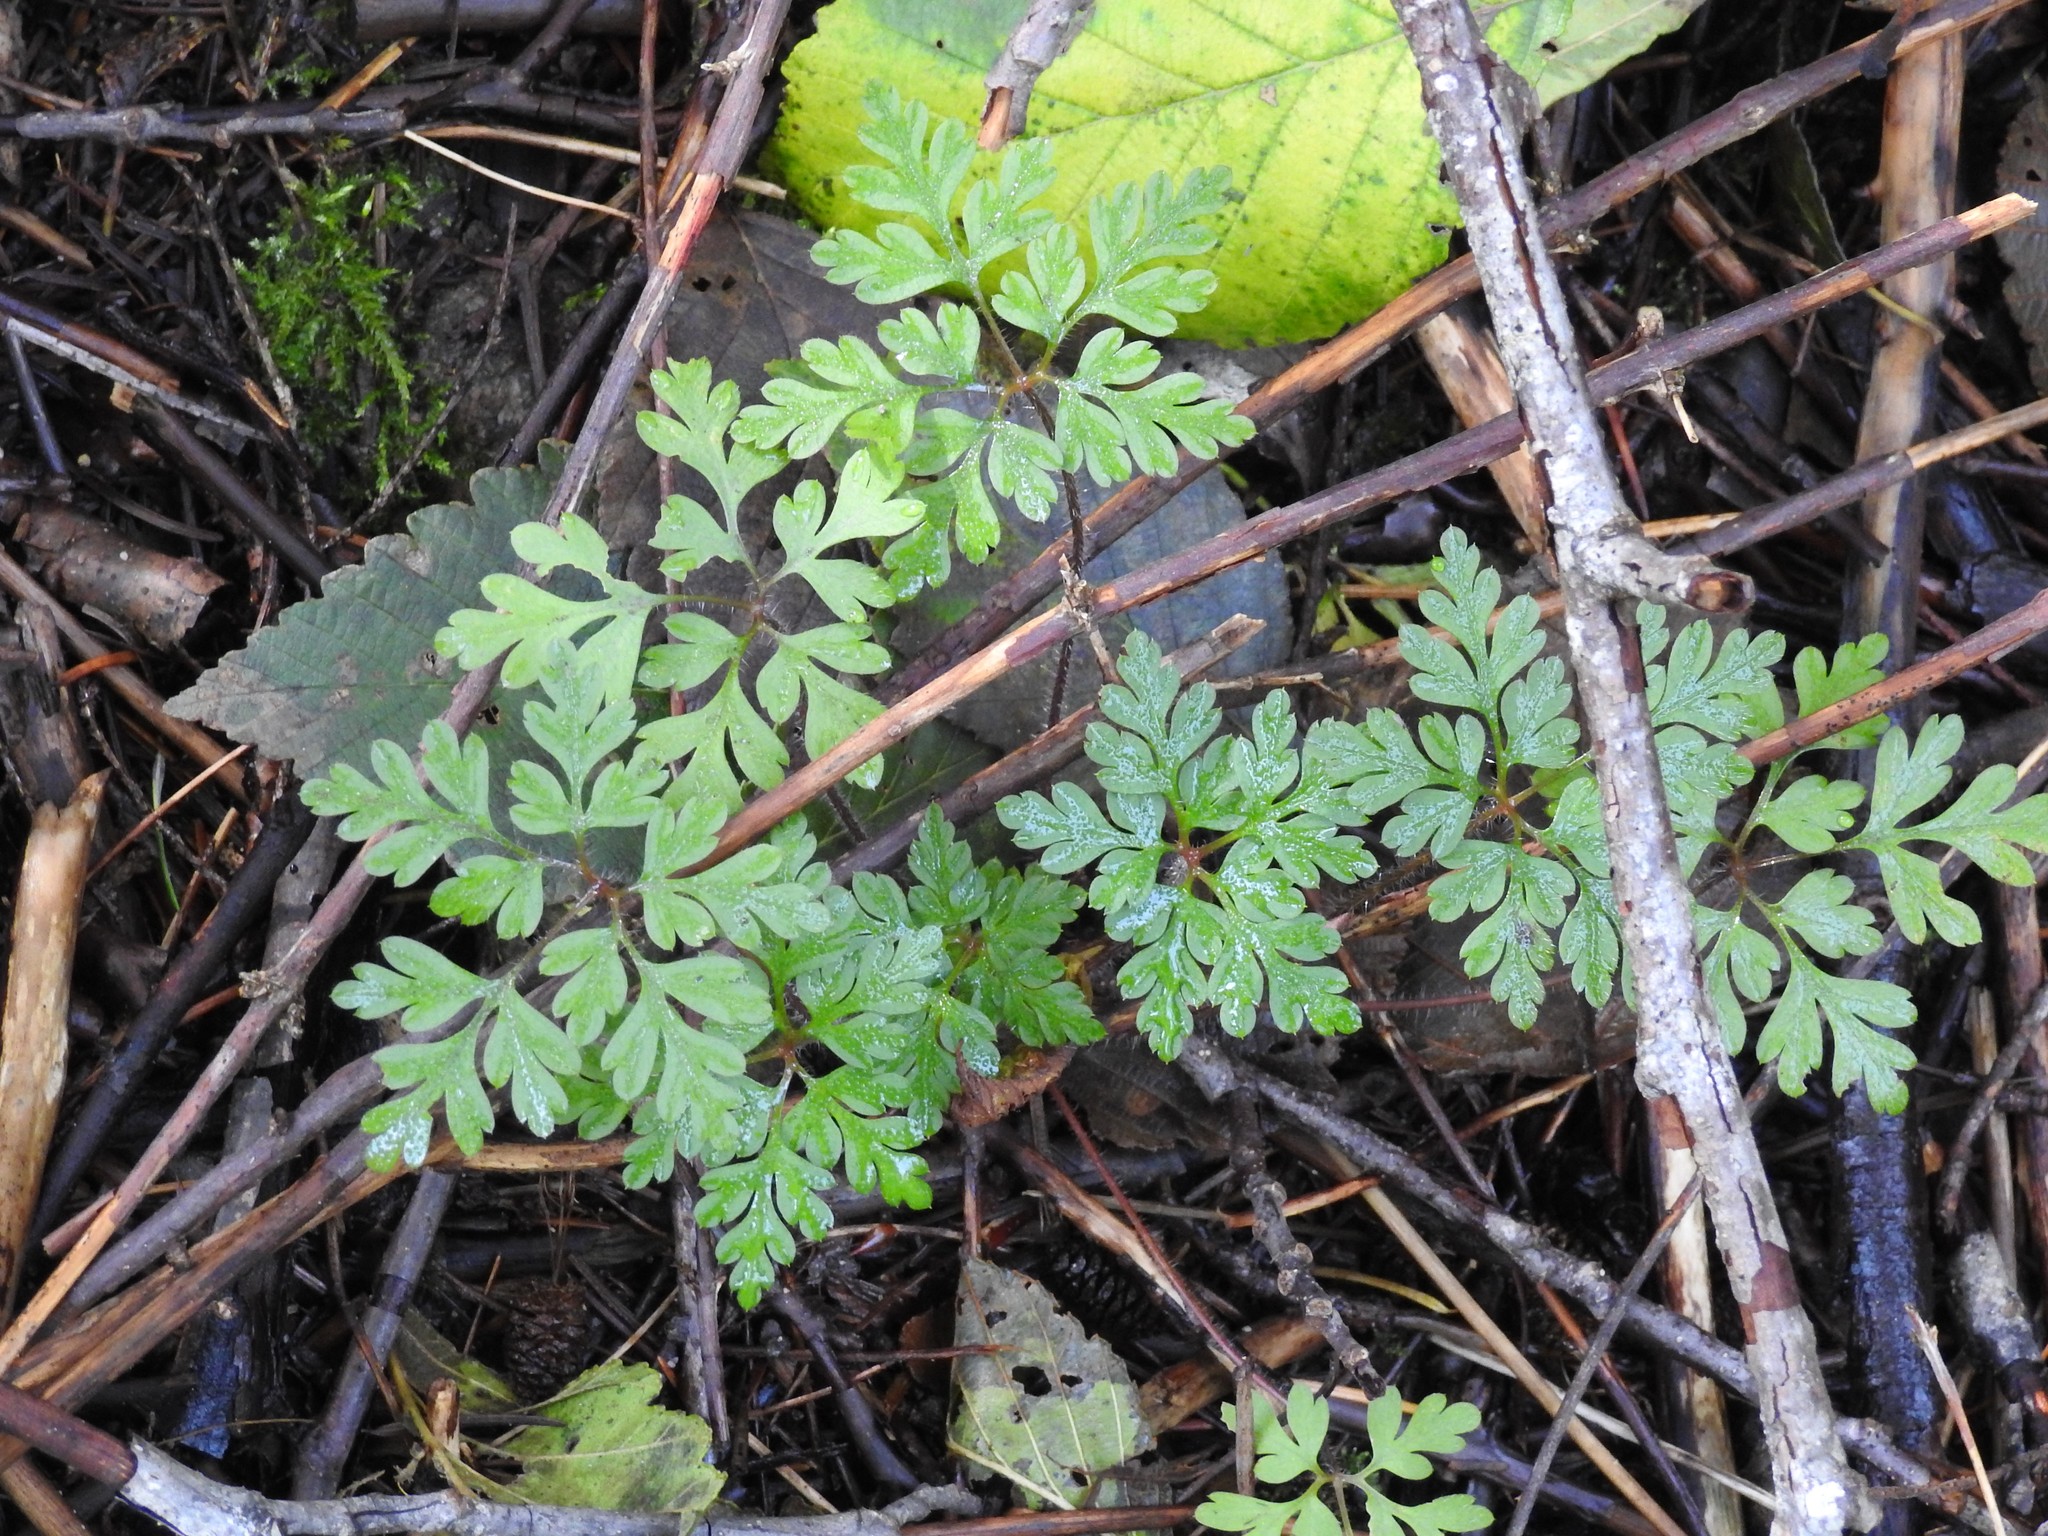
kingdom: Plantae
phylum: Tracheophyta
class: Magnoliopsida
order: Geraniales
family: Geraniaceae
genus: Geranium
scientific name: Geranium robertianum
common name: Herb-robert
